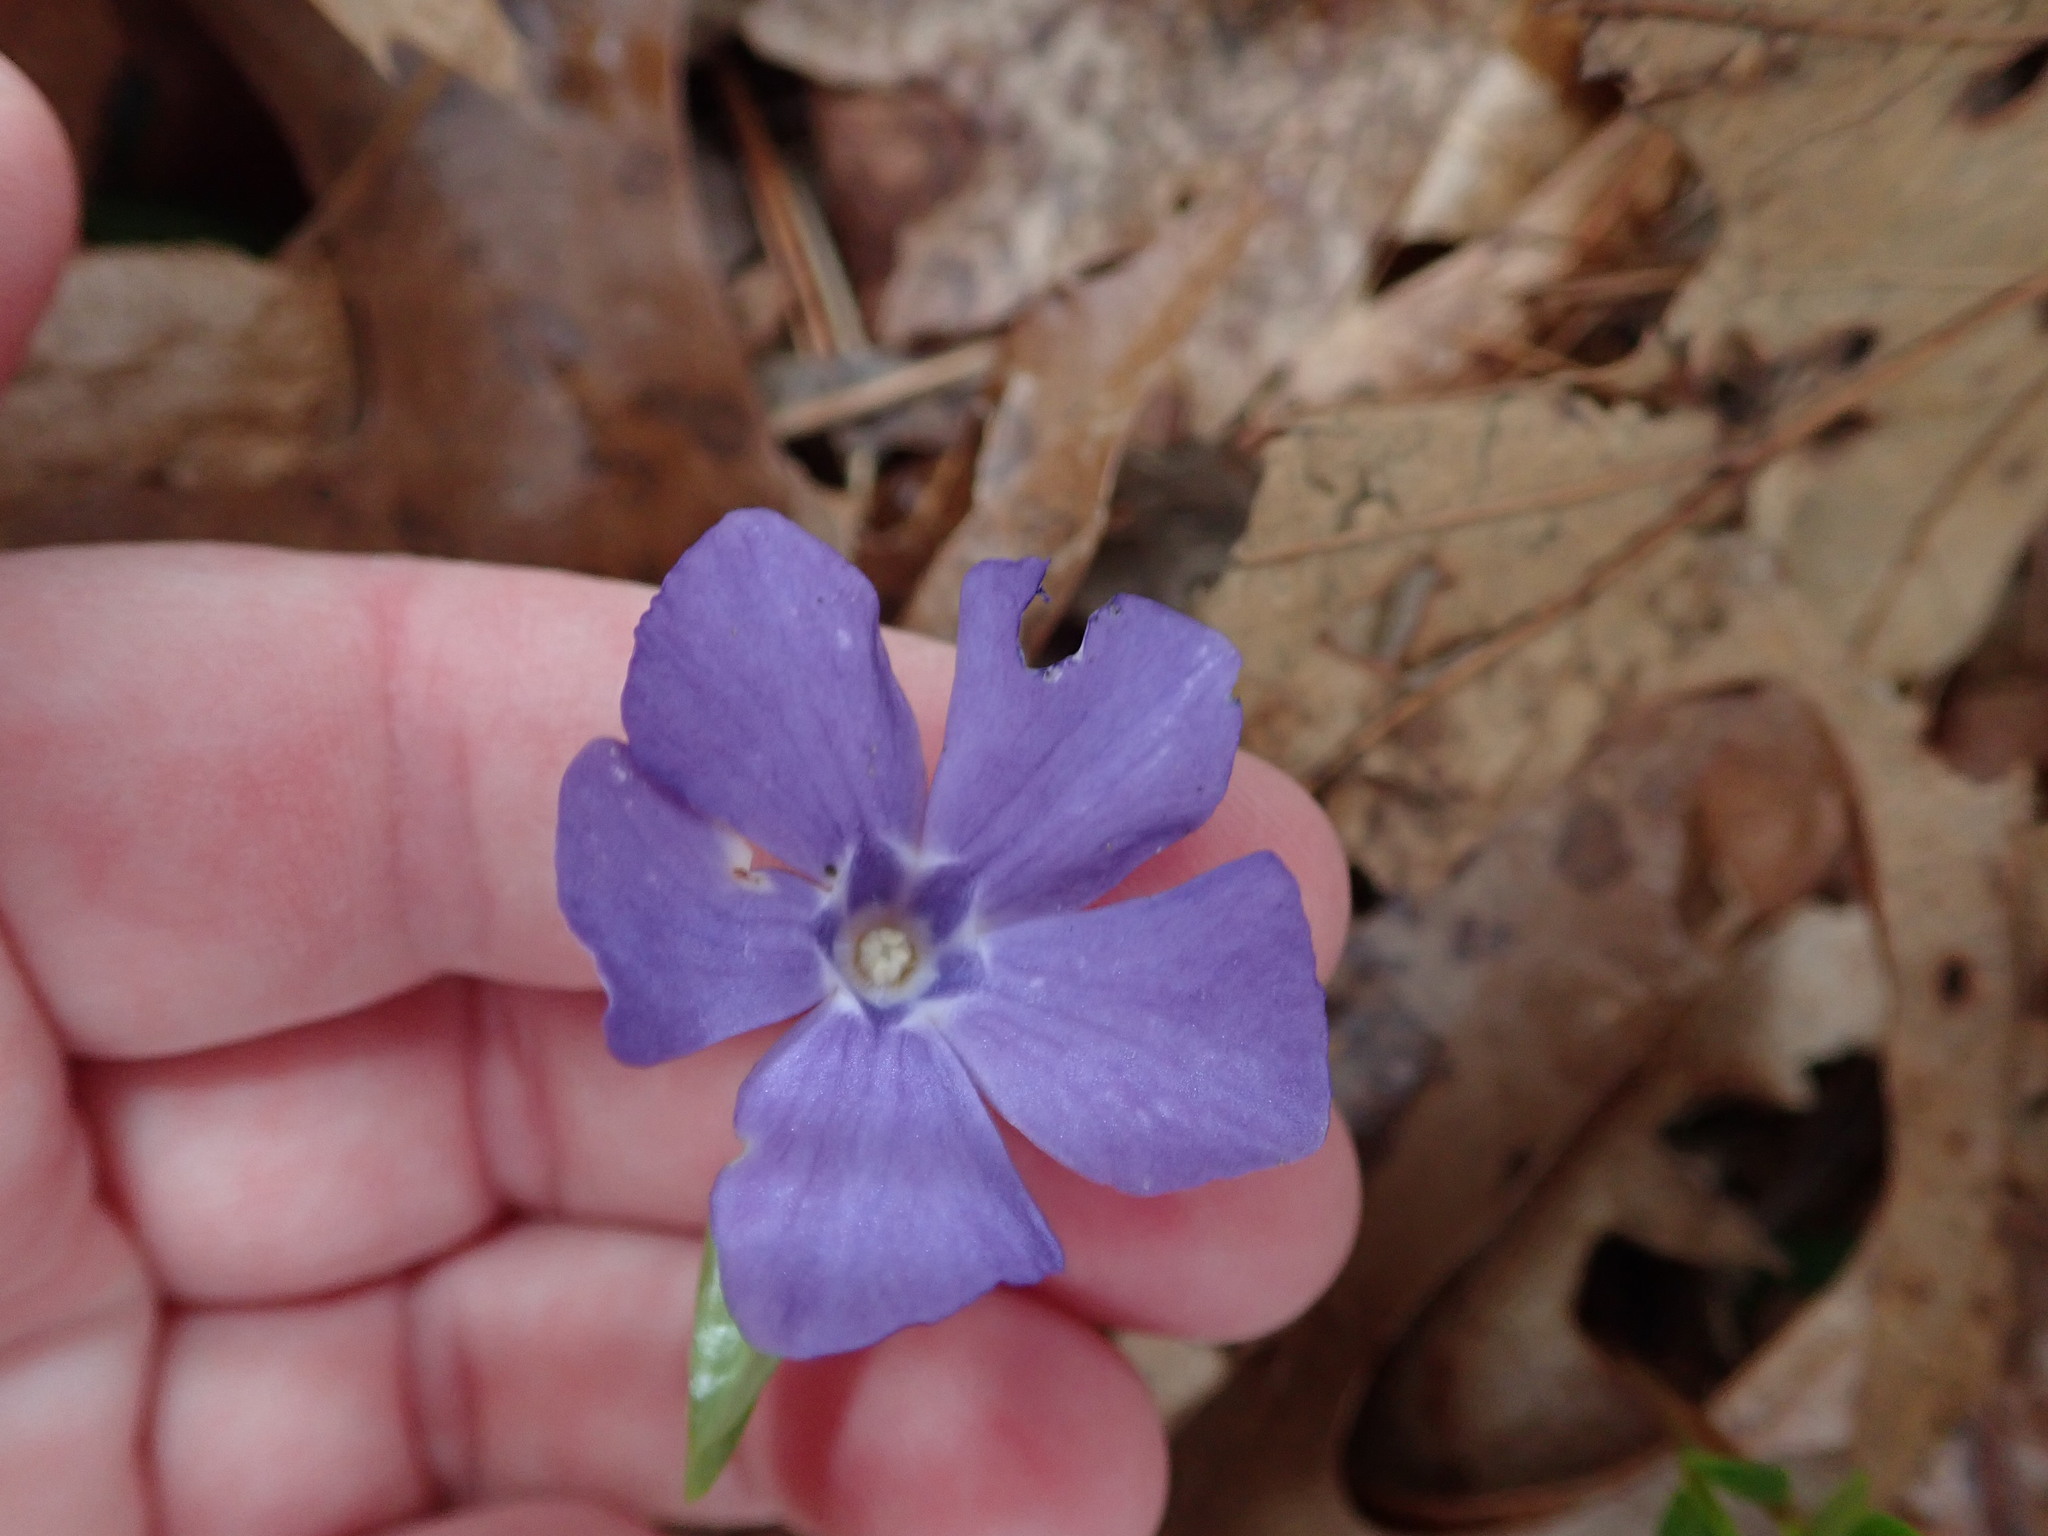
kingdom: Plantae
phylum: Tracheophyta
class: Magnoliopsida
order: Gentianales
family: Apocynaceae
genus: Vinca
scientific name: Vinca minor
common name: Lesser periwinkle
